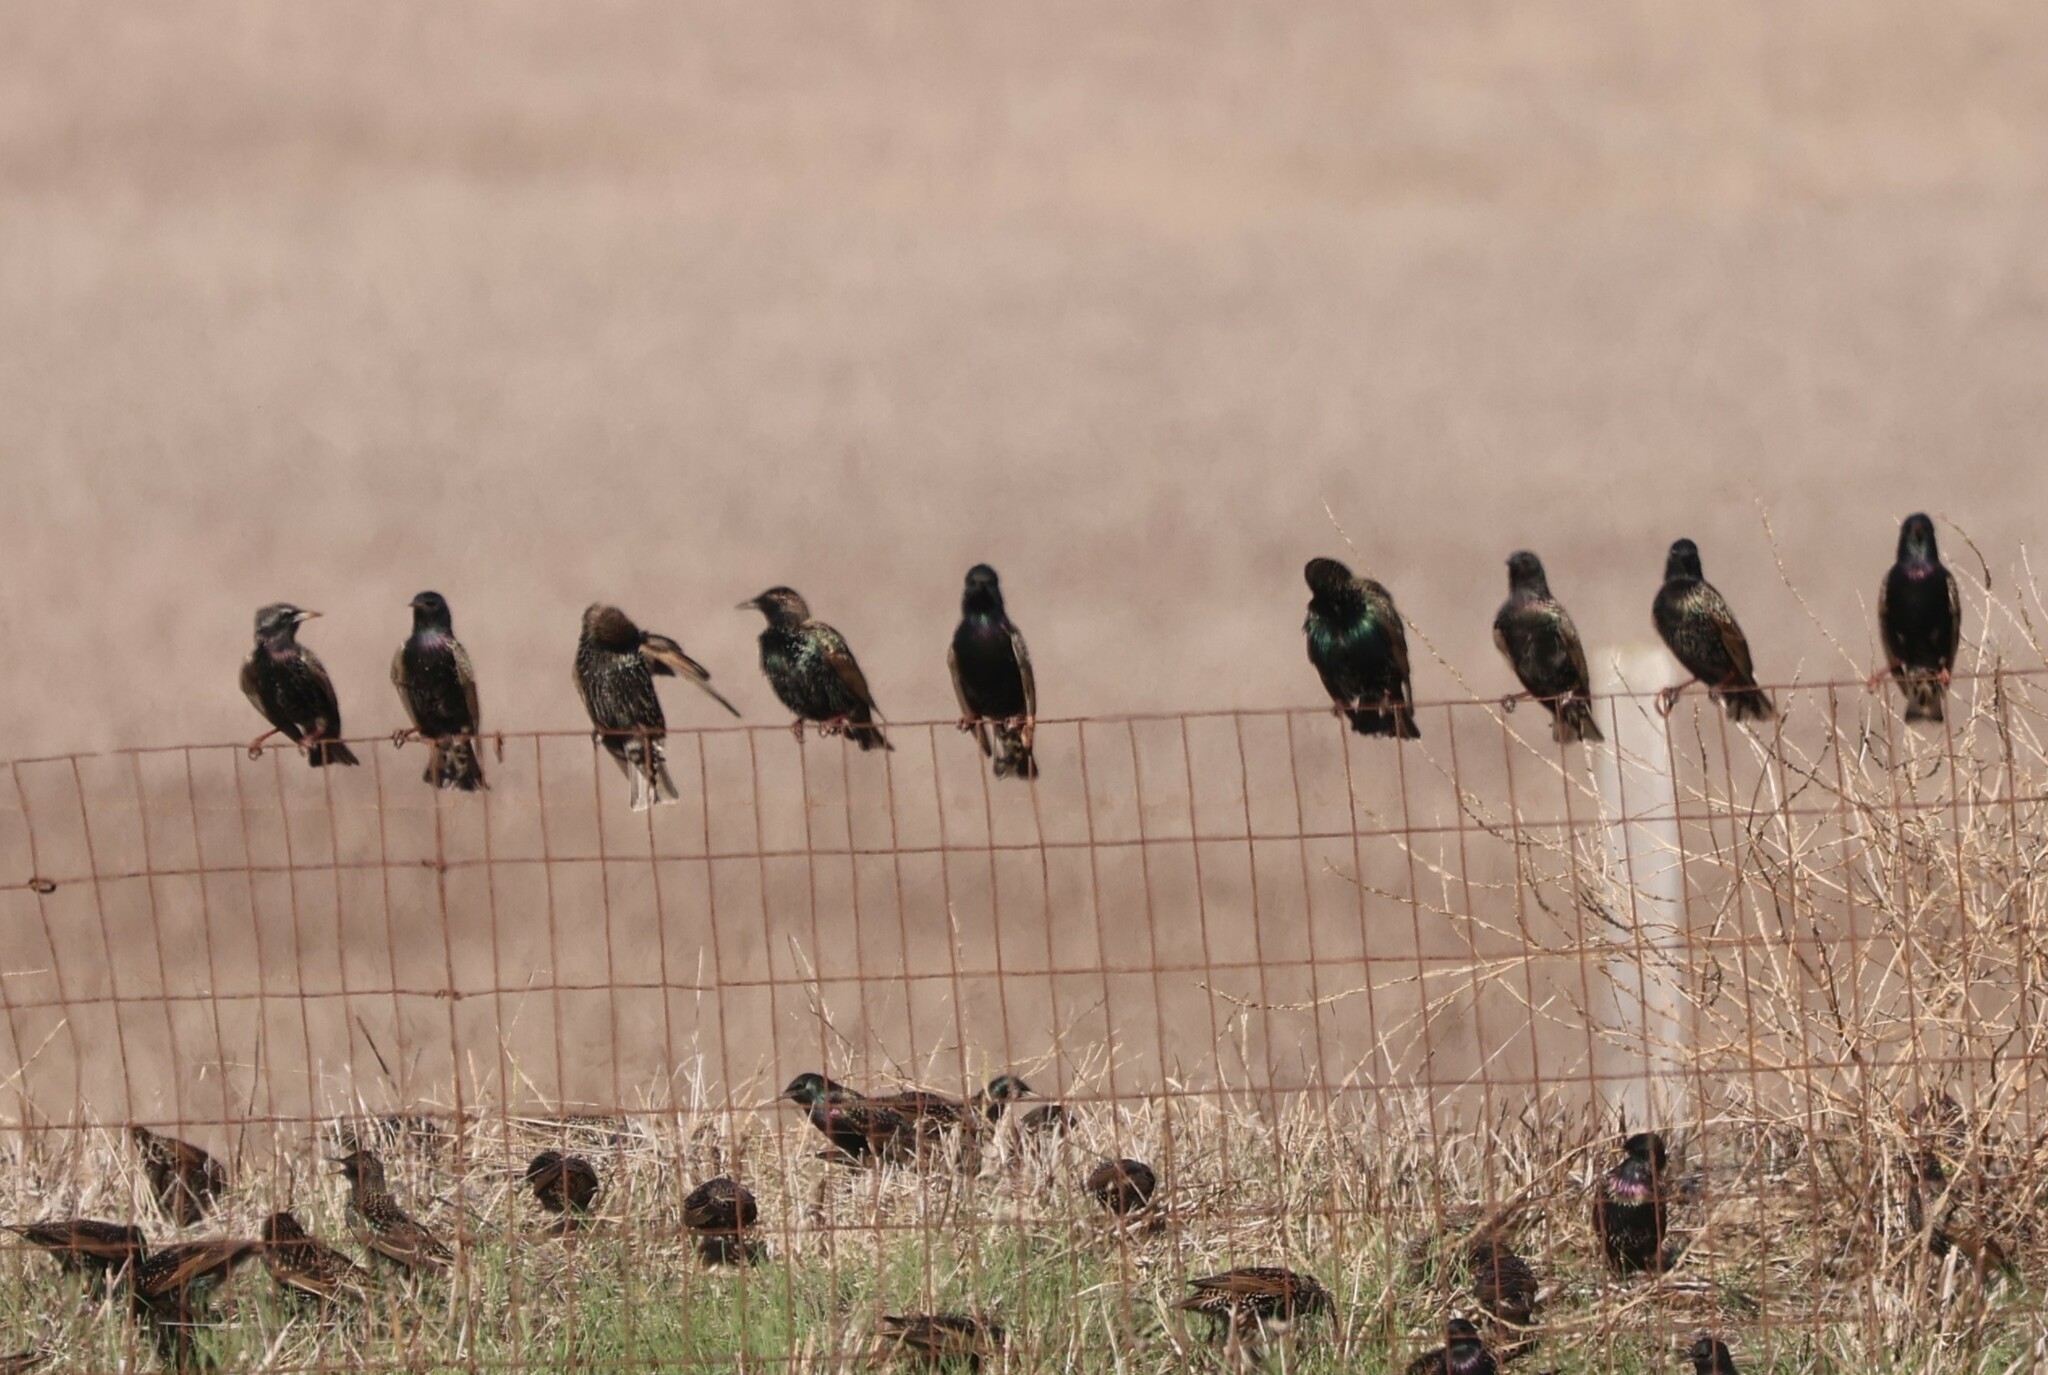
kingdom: Animalia
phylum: Chordata
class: Aves
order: Passeriformes
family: Sturnidae
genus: Sturnus
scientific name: Sturnus vulgaris
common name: Common starling
